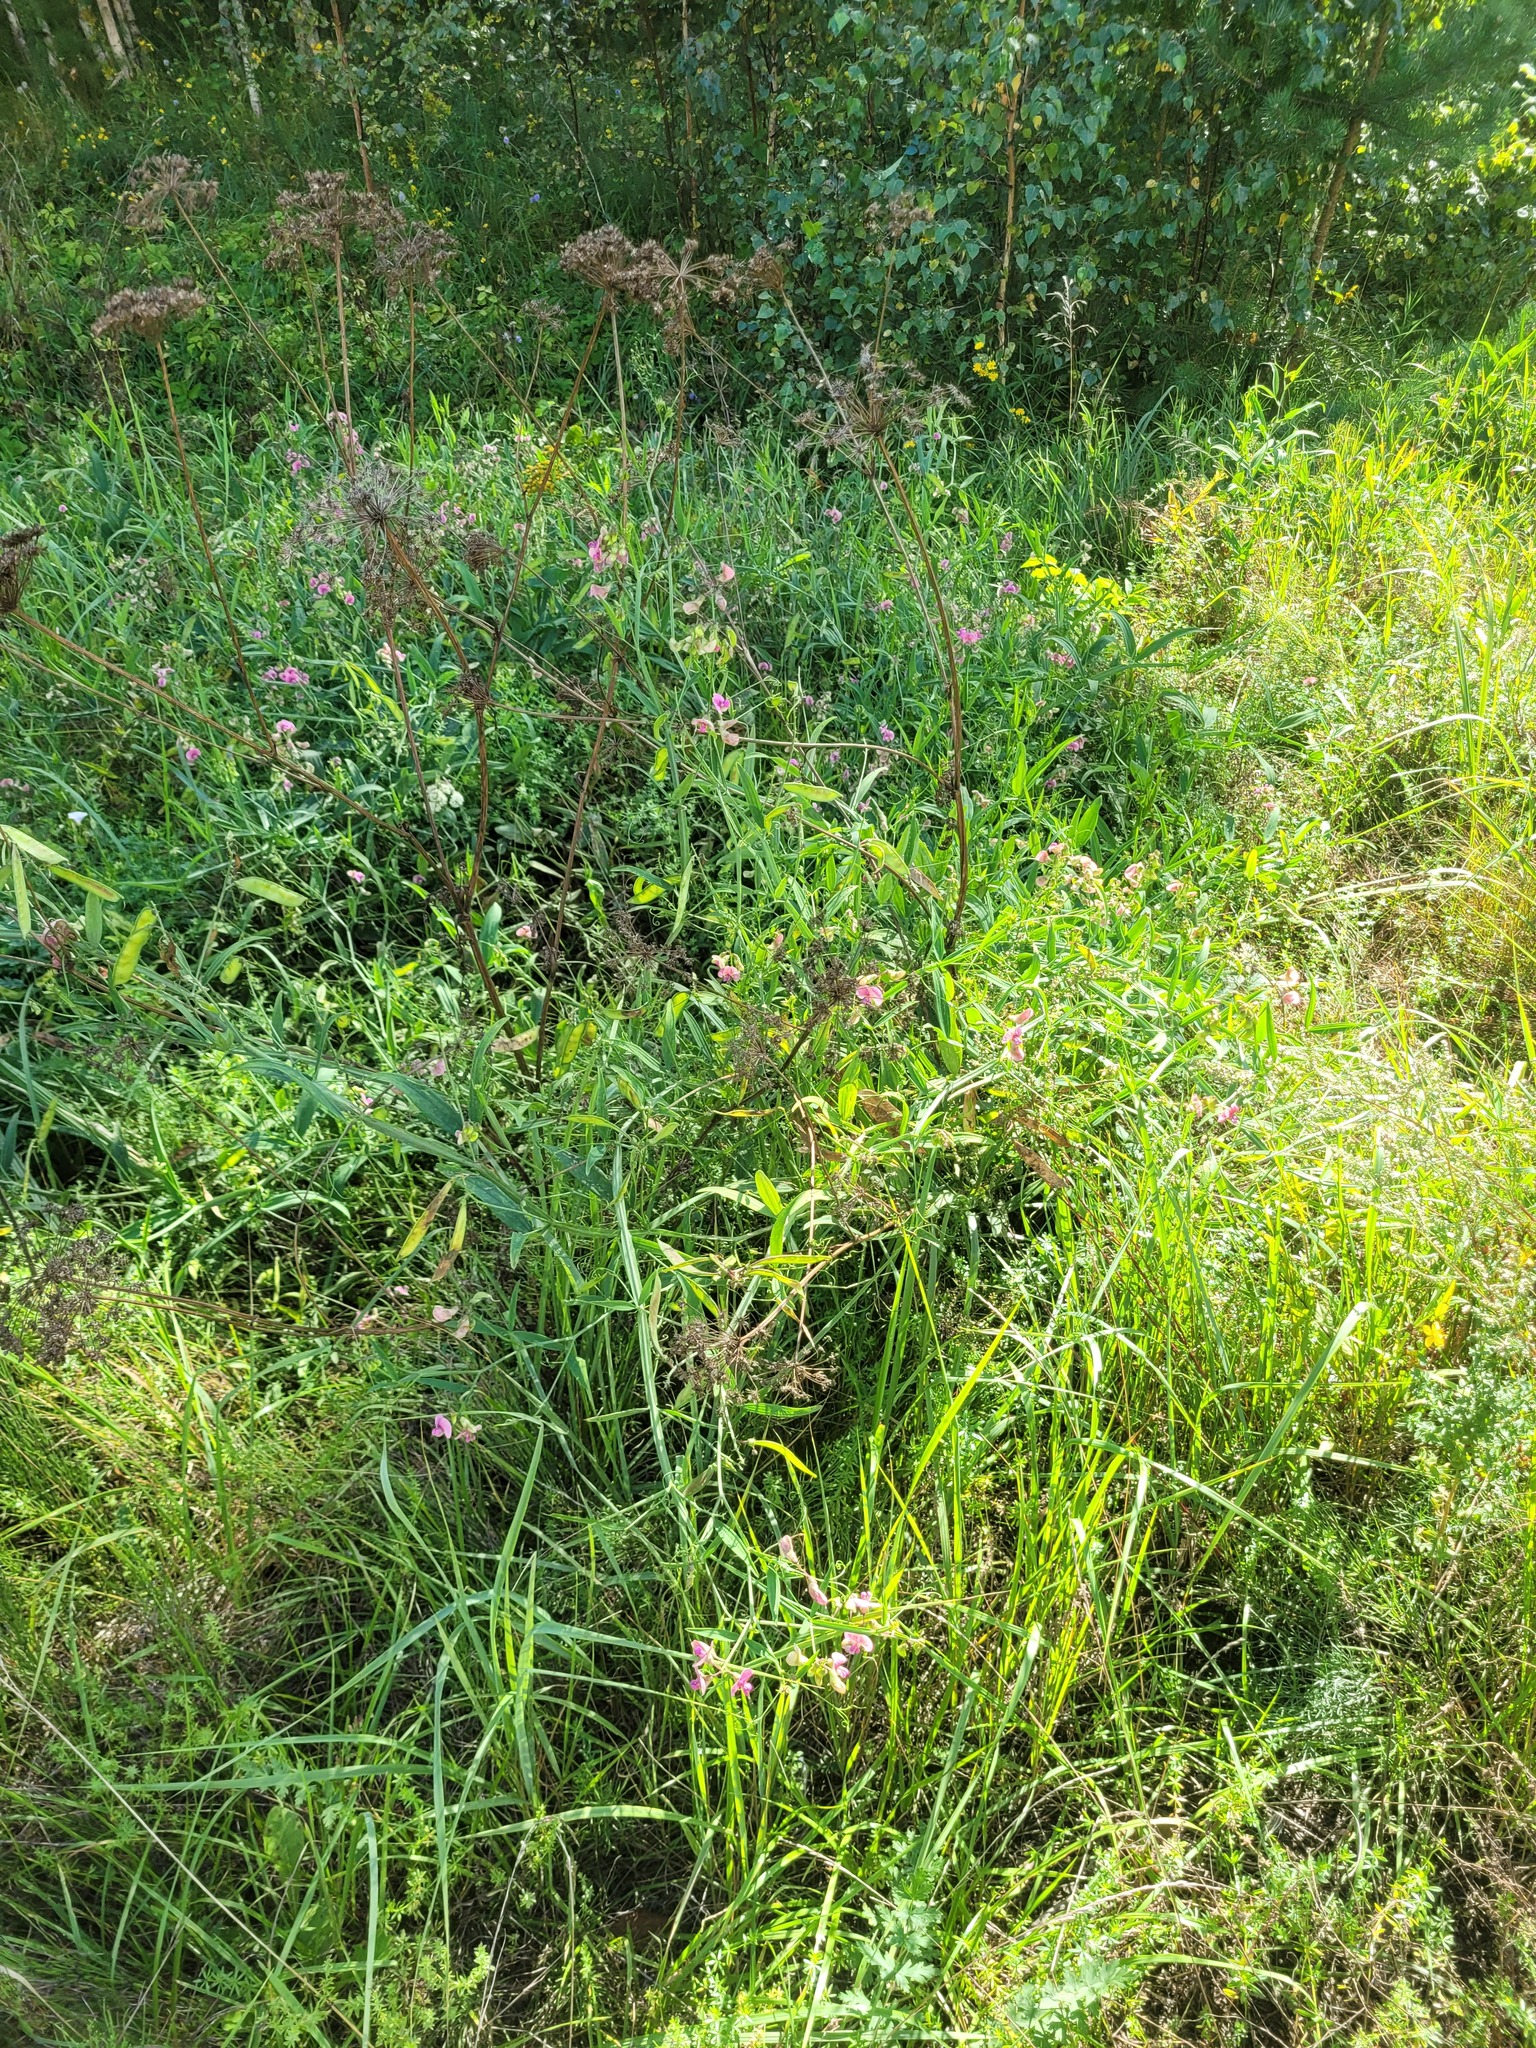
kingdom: Plantae
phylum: Tracheophyta
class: Magnoliopsida
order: Fabales
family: Fabaceae
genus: Lathyrus
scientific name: Lathyrus sylvestris
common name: Flat pea
